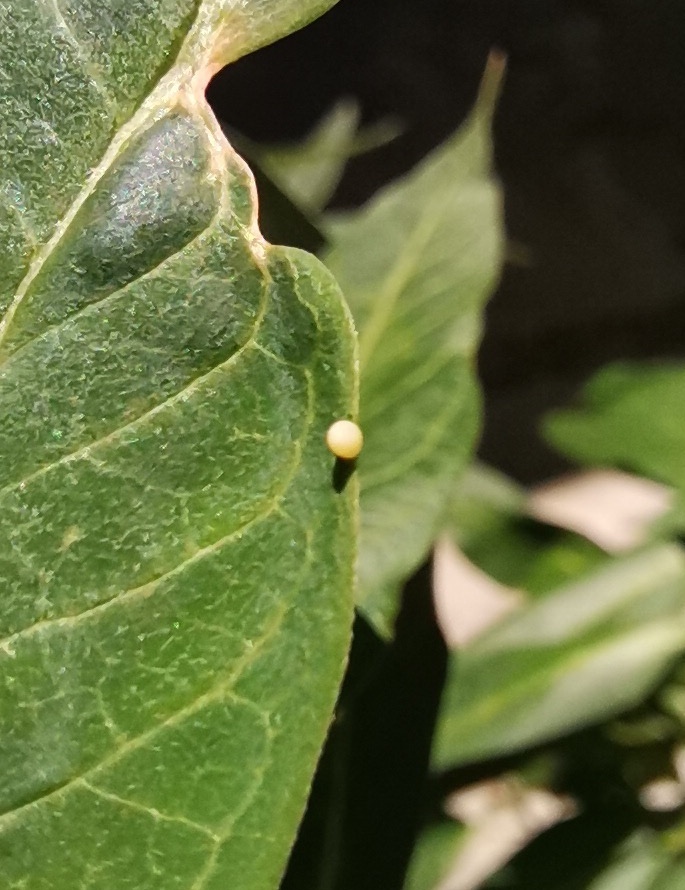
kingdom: Animalia
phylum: Arthropoda
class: Insecta
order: Lepidoptera
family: Nymphalidae
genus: Danaus
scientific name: Danaus plexippus
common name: Monarch
